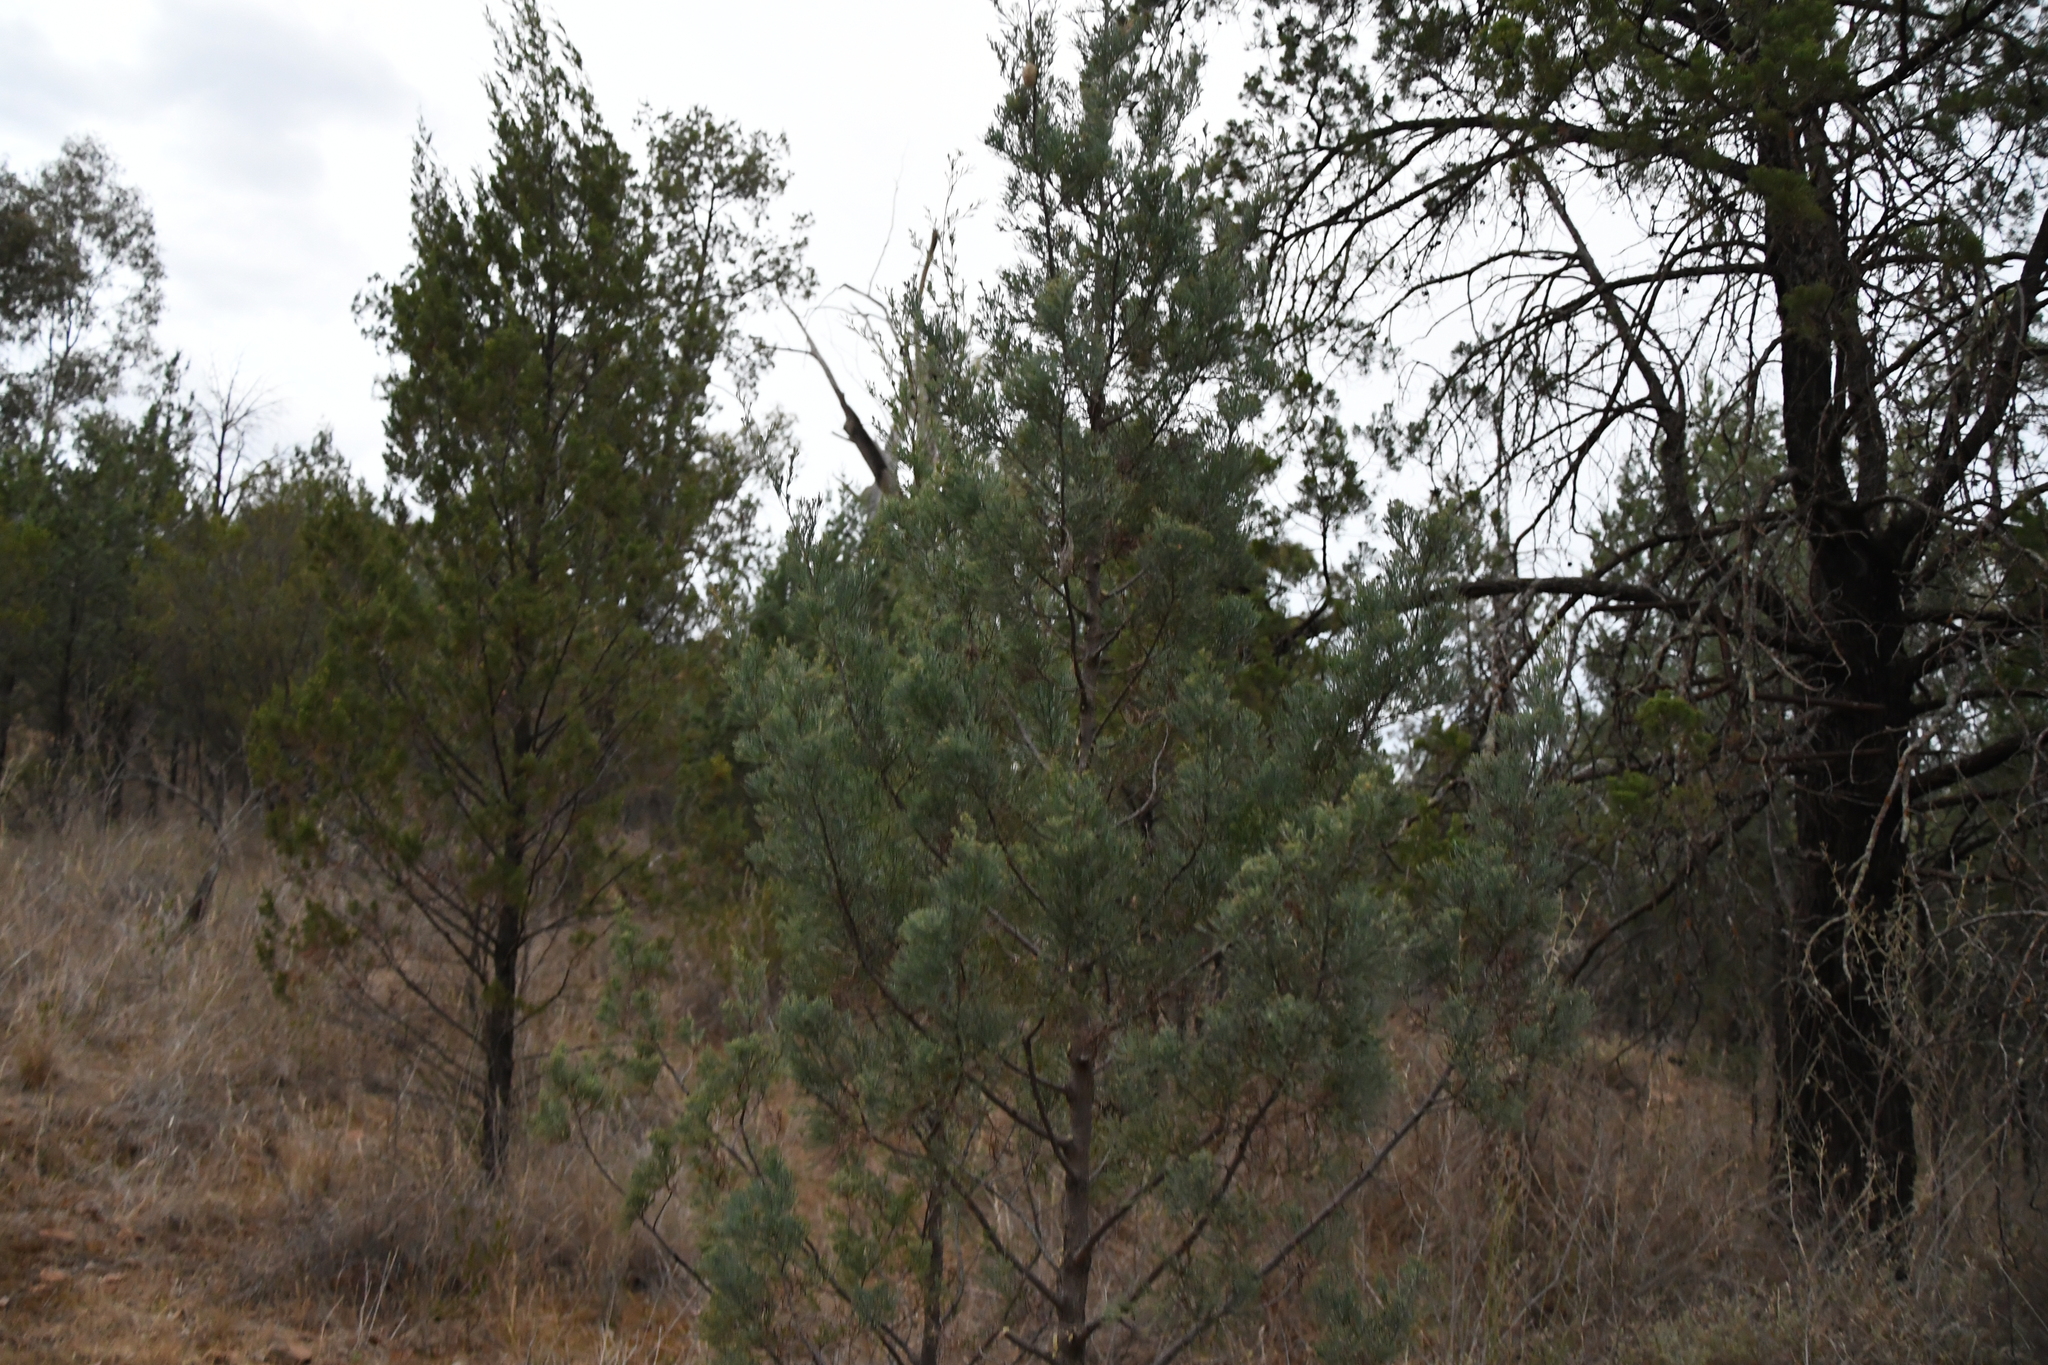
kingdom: Plantae
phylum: Tracheophyta
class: Pinopsida
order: Pinales
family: Cupressaceae
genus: Callitris
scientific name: Callitris columellaris
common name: White cypress-pine
